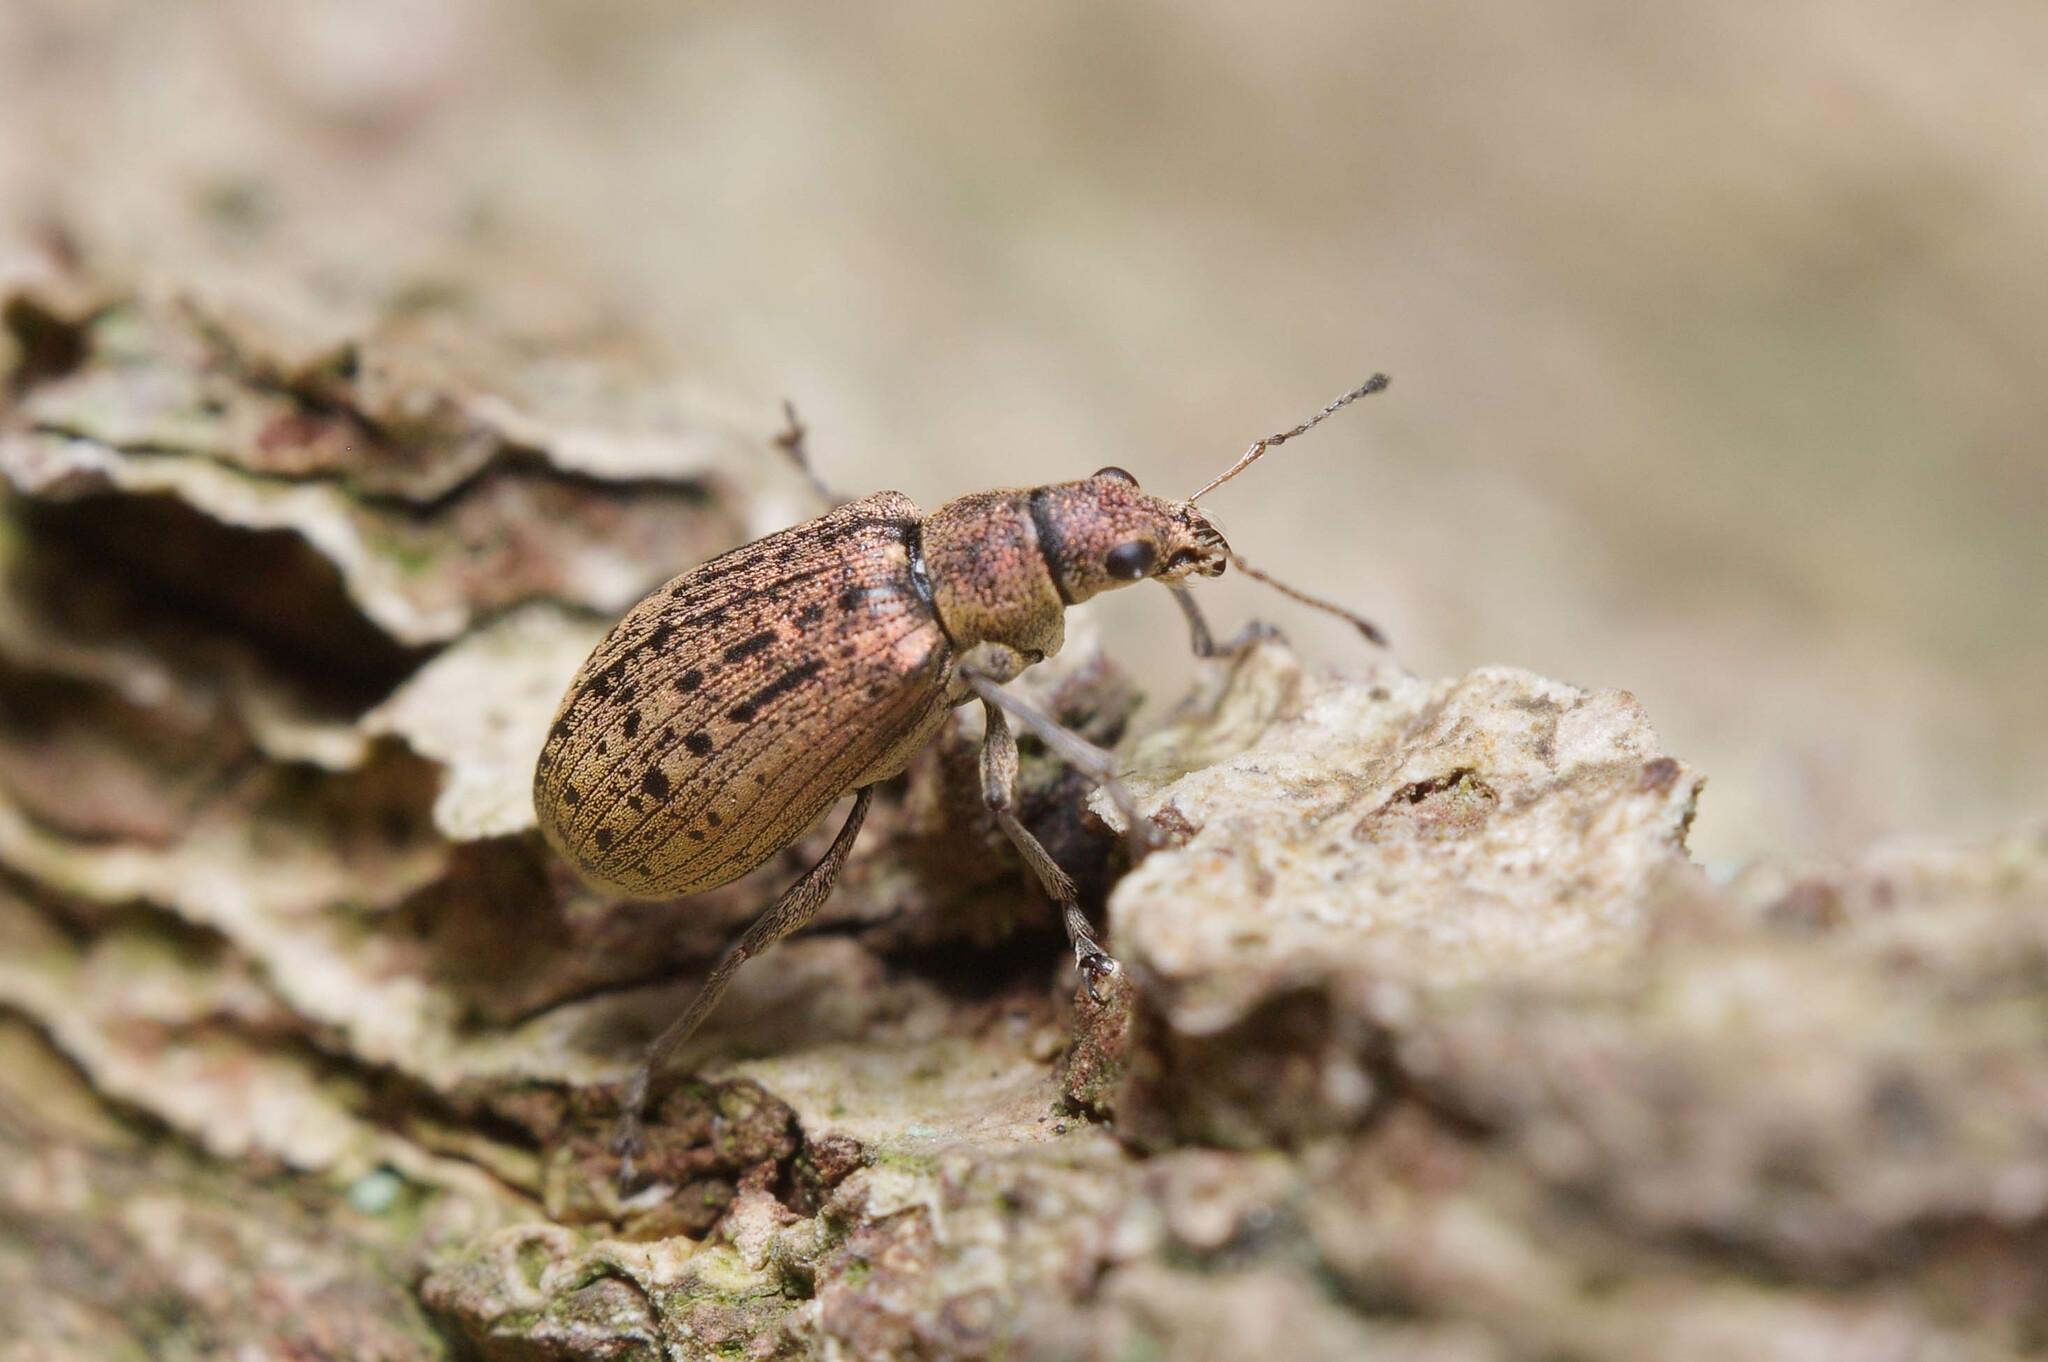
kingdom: Animalia
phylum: Arthropoda
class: Insecta
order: Coleoptera
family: Curculionidae
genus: Polydrusus
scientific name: Polydrusus cervinus
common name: Weevil
